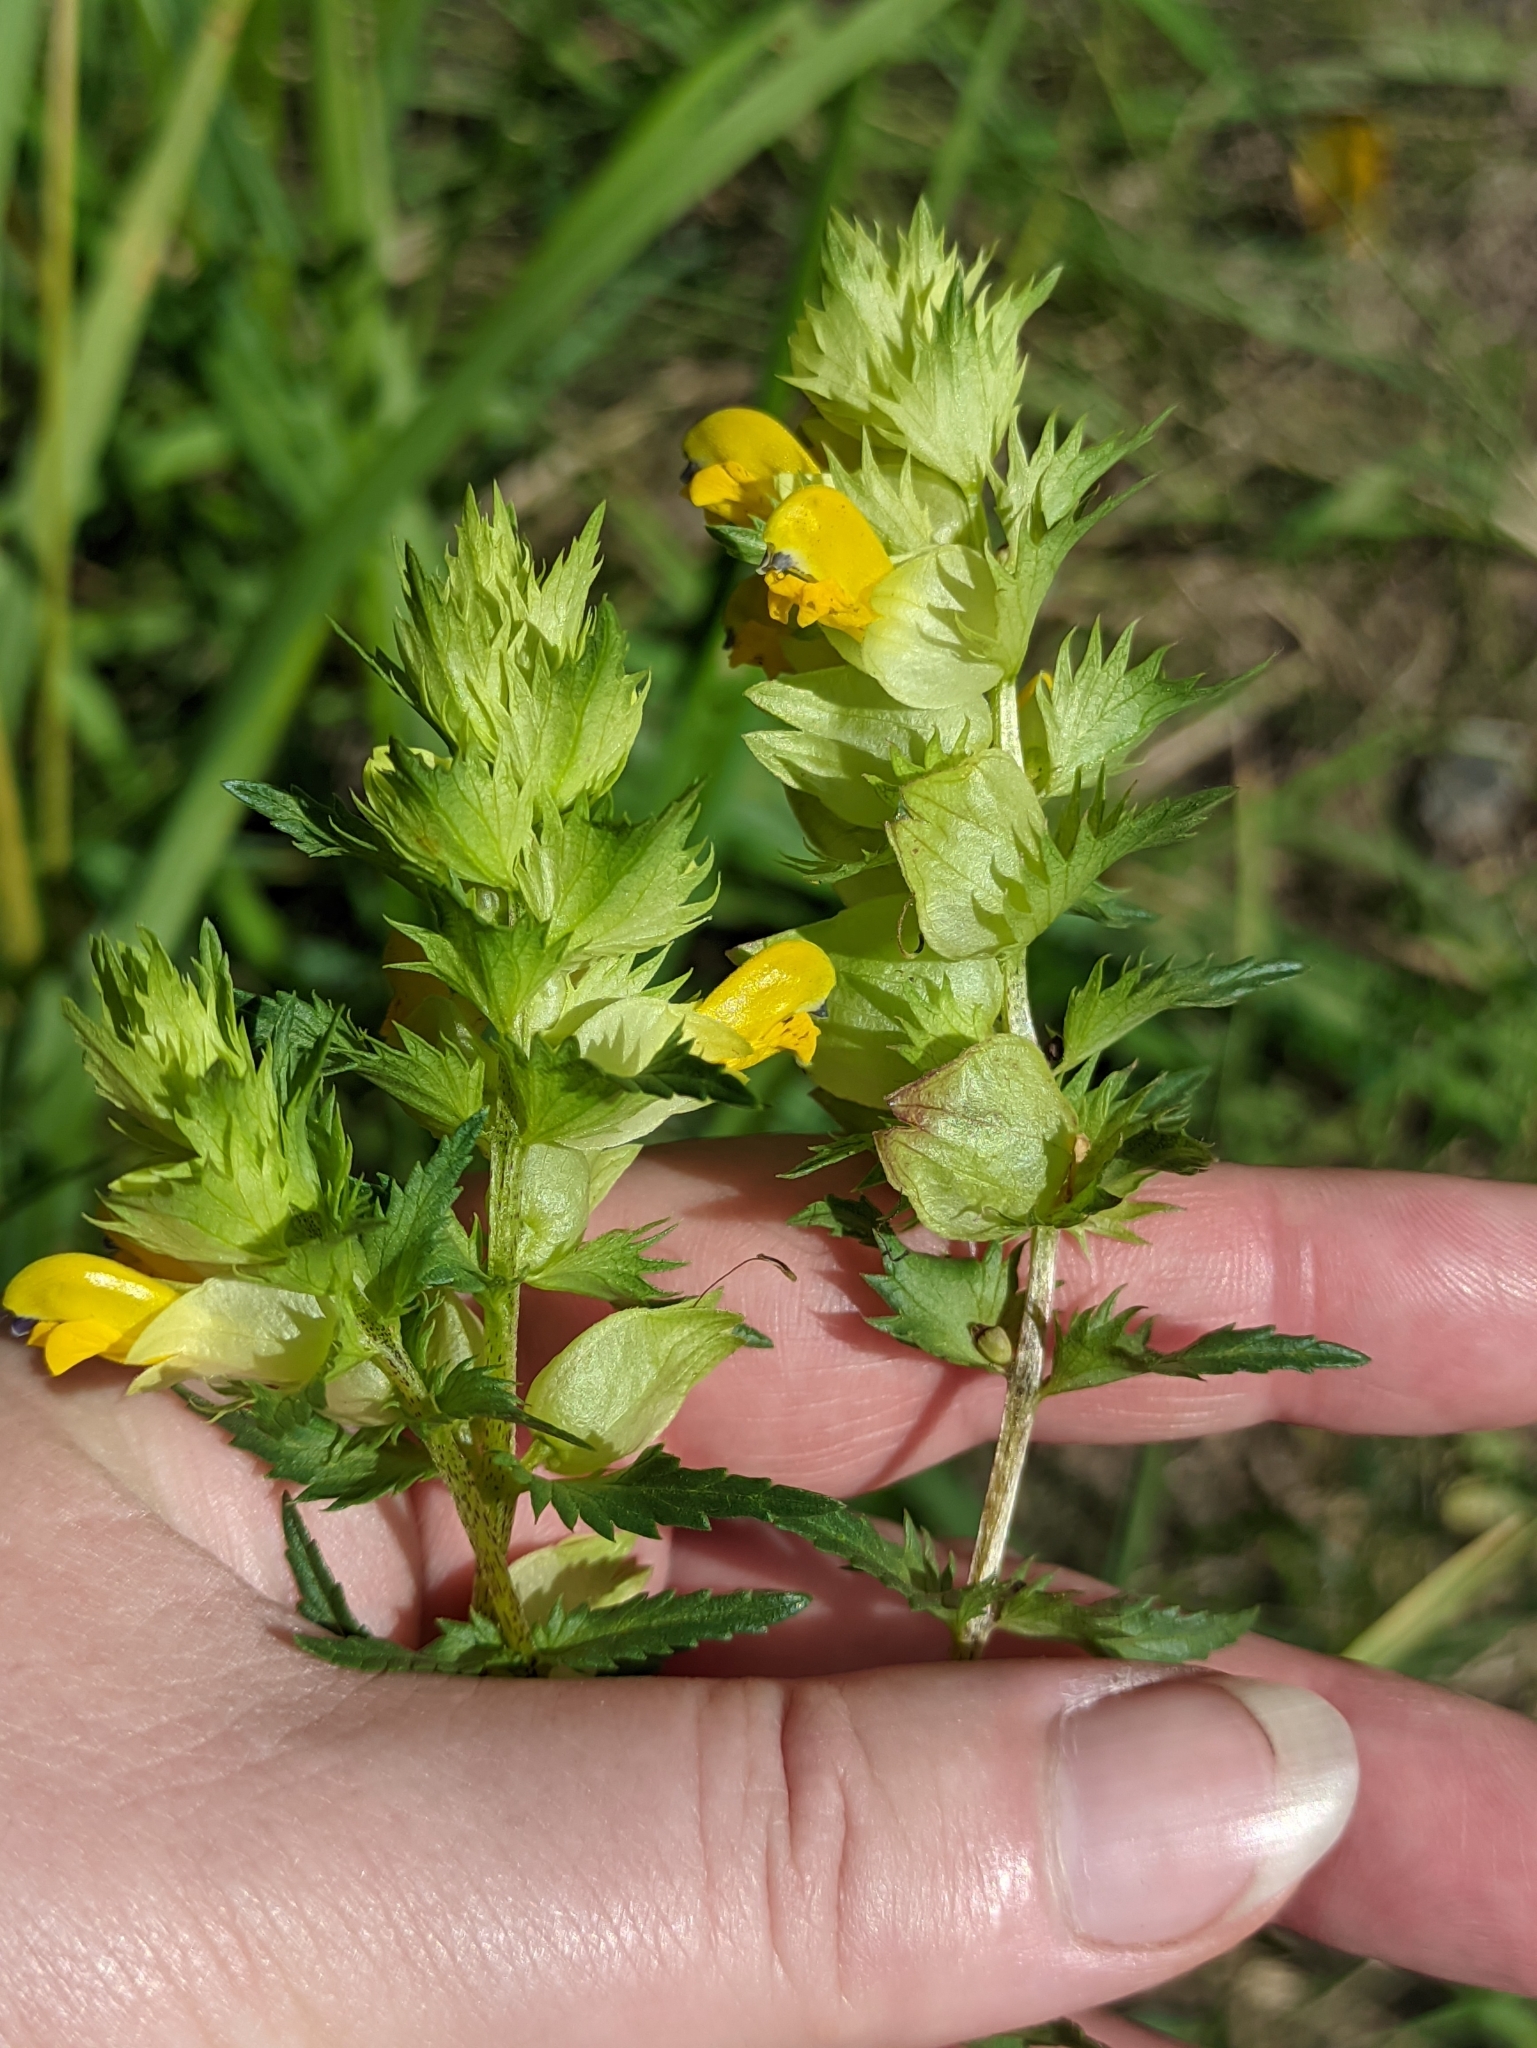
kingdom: Plantae
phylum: Tracheophyta
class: Magnoliopsida
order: Lamiales
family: Orobanchaceae
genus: Rhinanthus
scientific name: Rhinanthus serotinus
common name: Late-flowering yellow rattle
